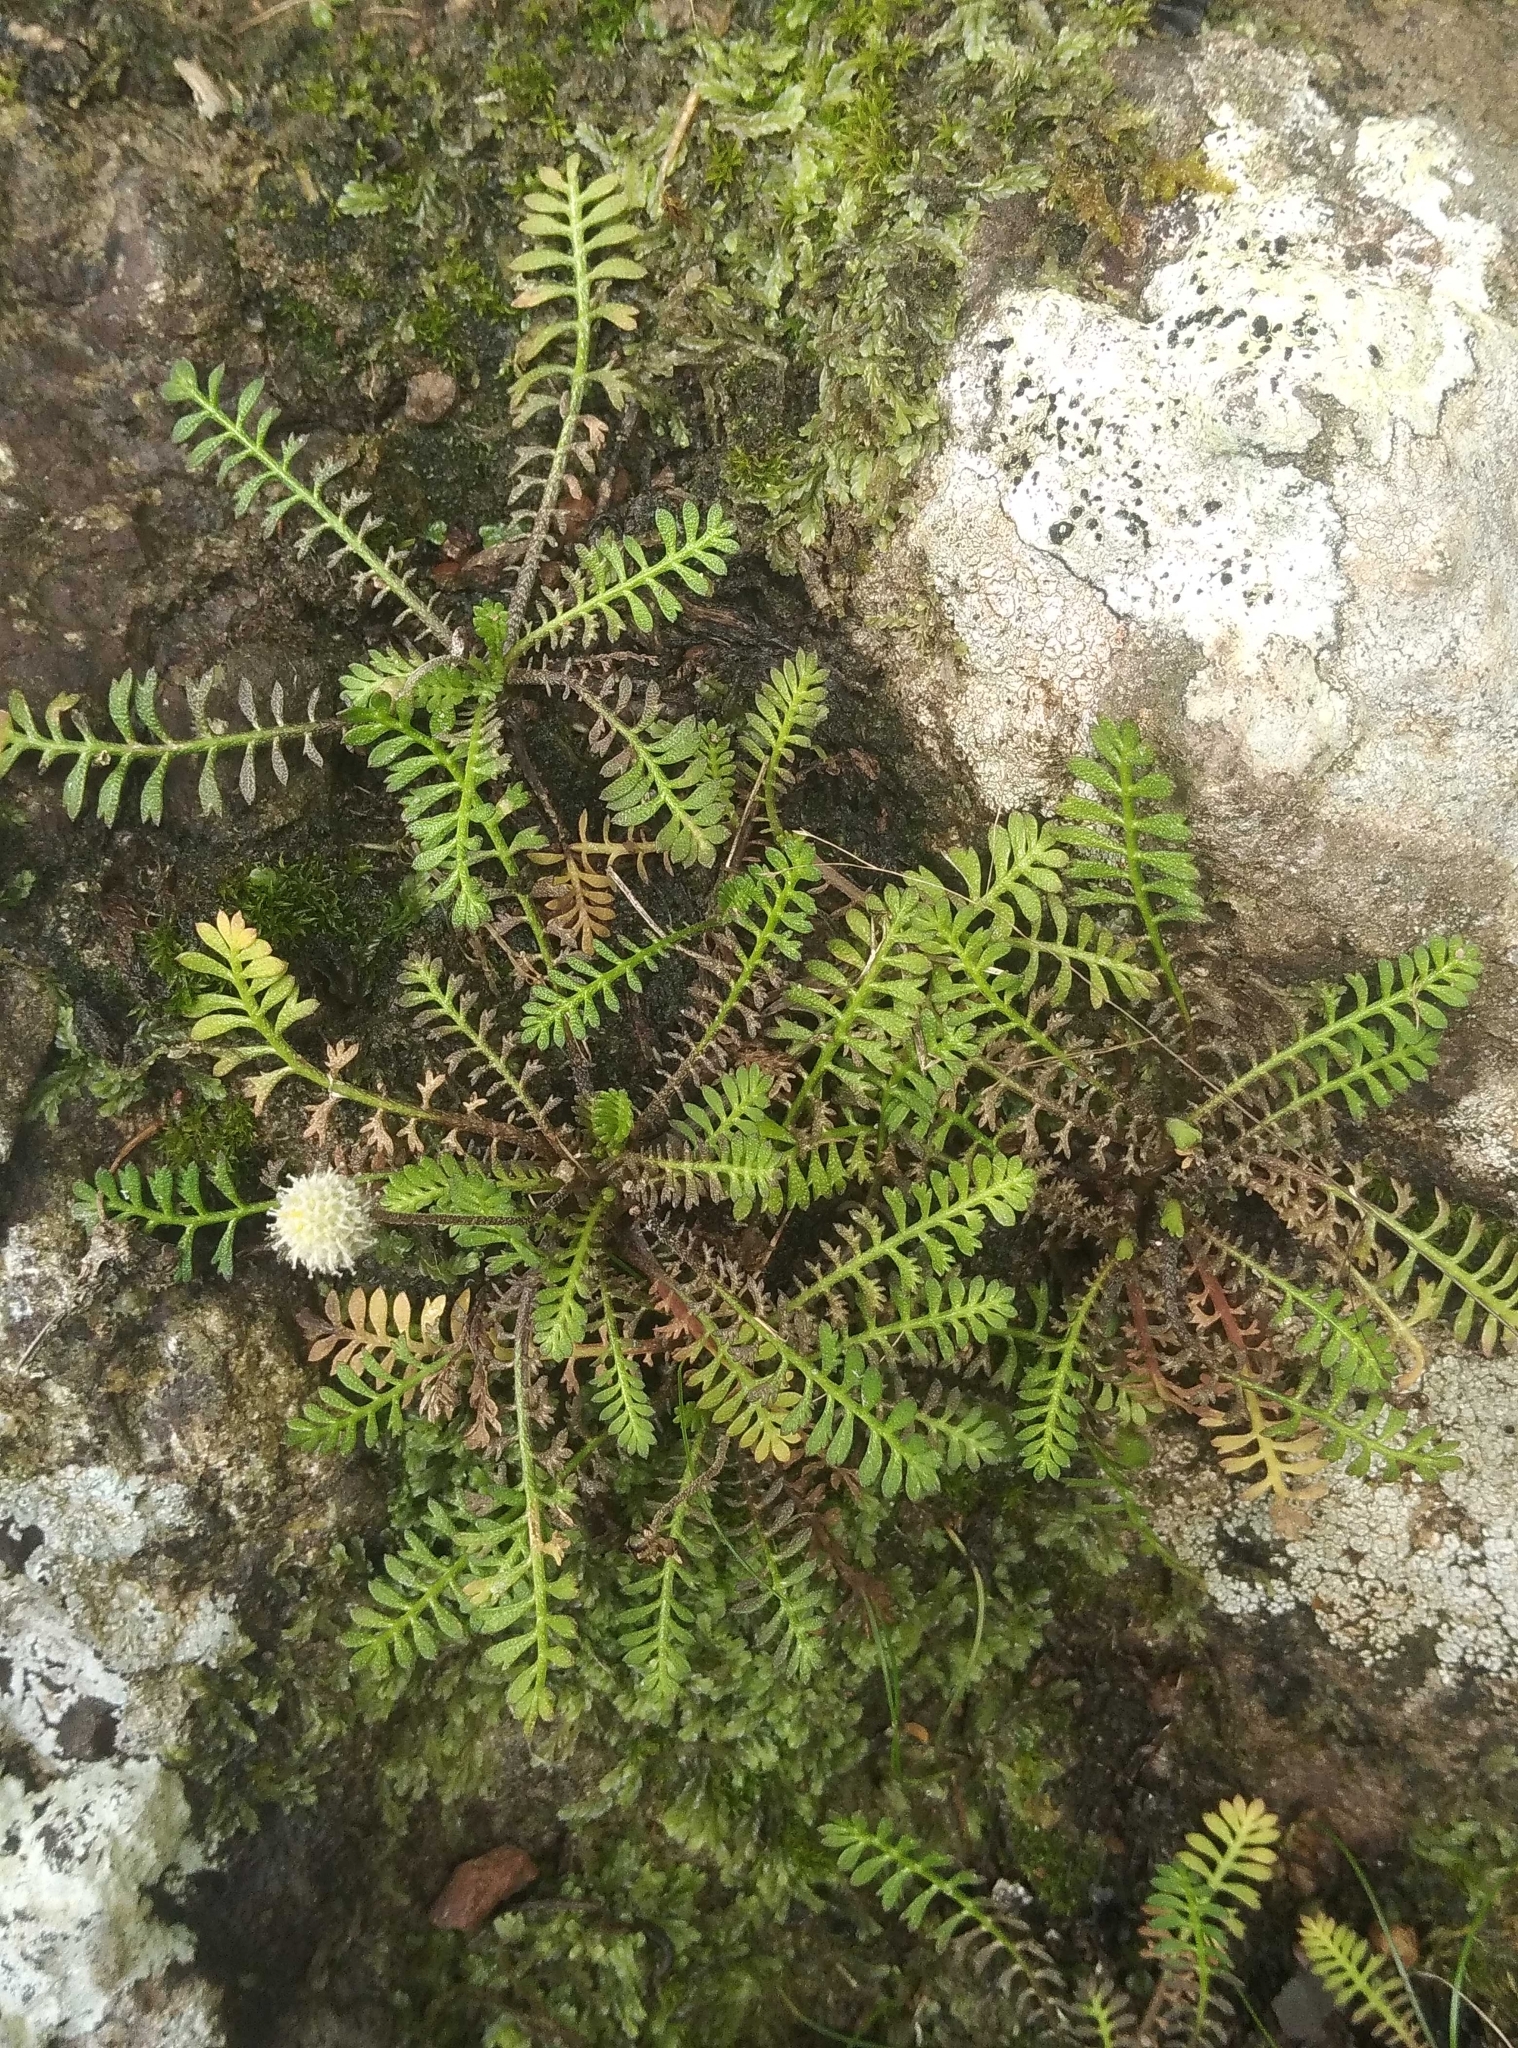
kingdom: Plantae
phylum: Tracheophyta
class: Magnoliopsida
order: Asterales
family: Asteraceae
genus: Leptinella
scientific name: Leptinella minor
